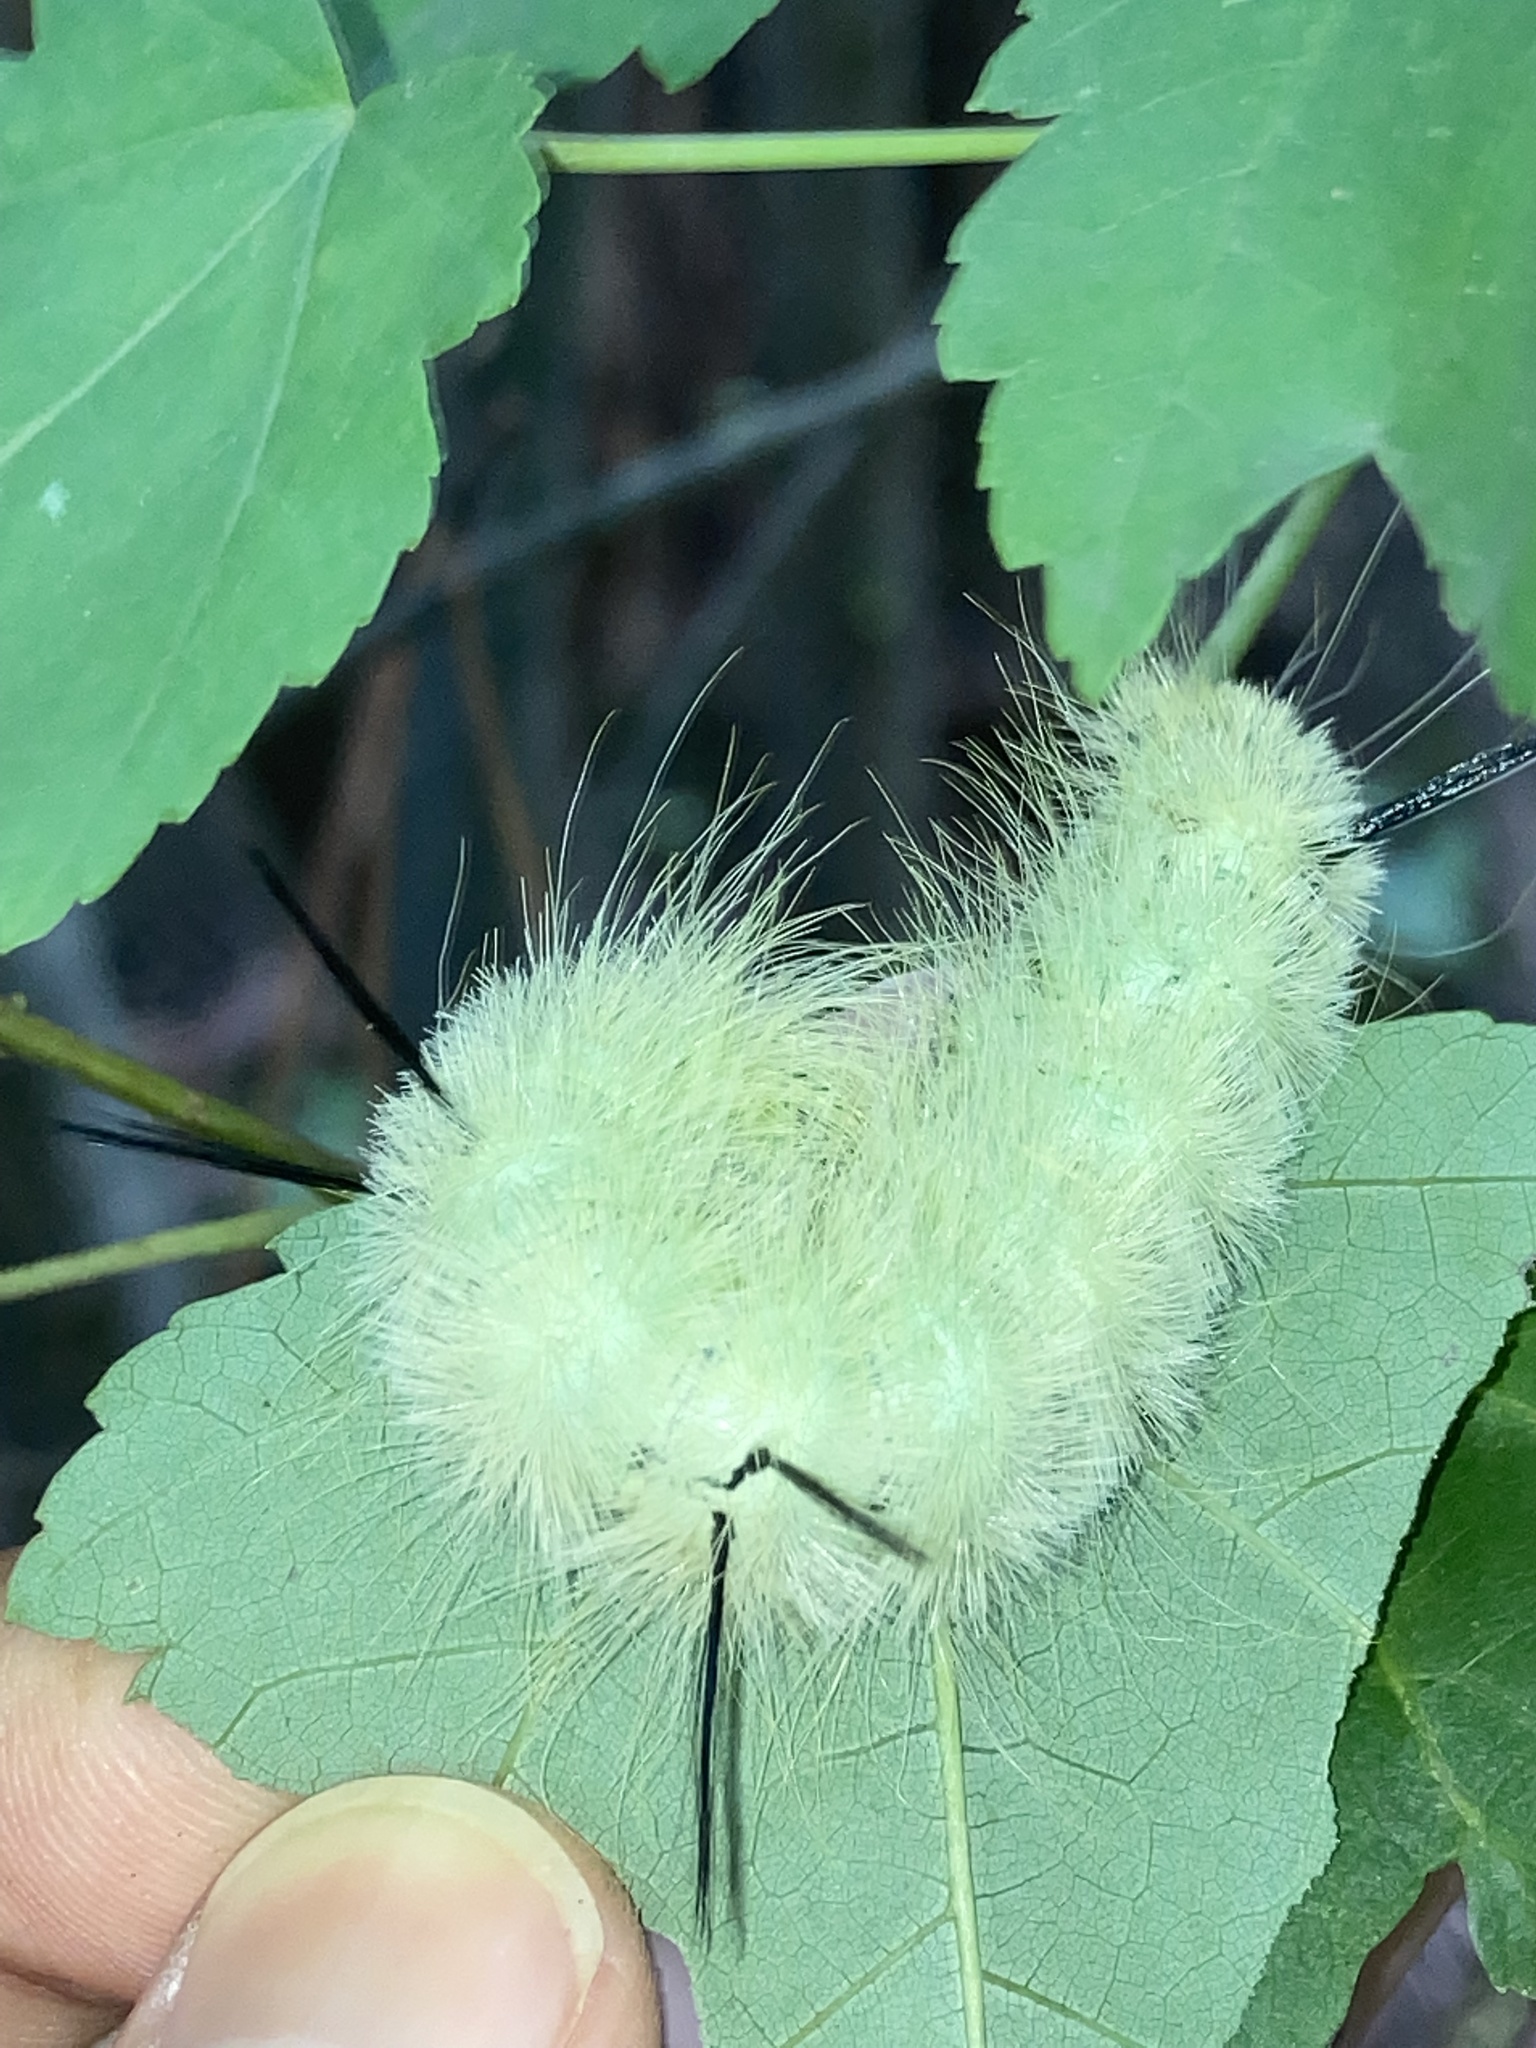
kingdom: Animalia
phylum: Arthropoda
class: Insecta
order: Lepidoptera
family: Noctuidae
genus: Acronicta
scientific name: Acronicta americana
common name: American dagger
